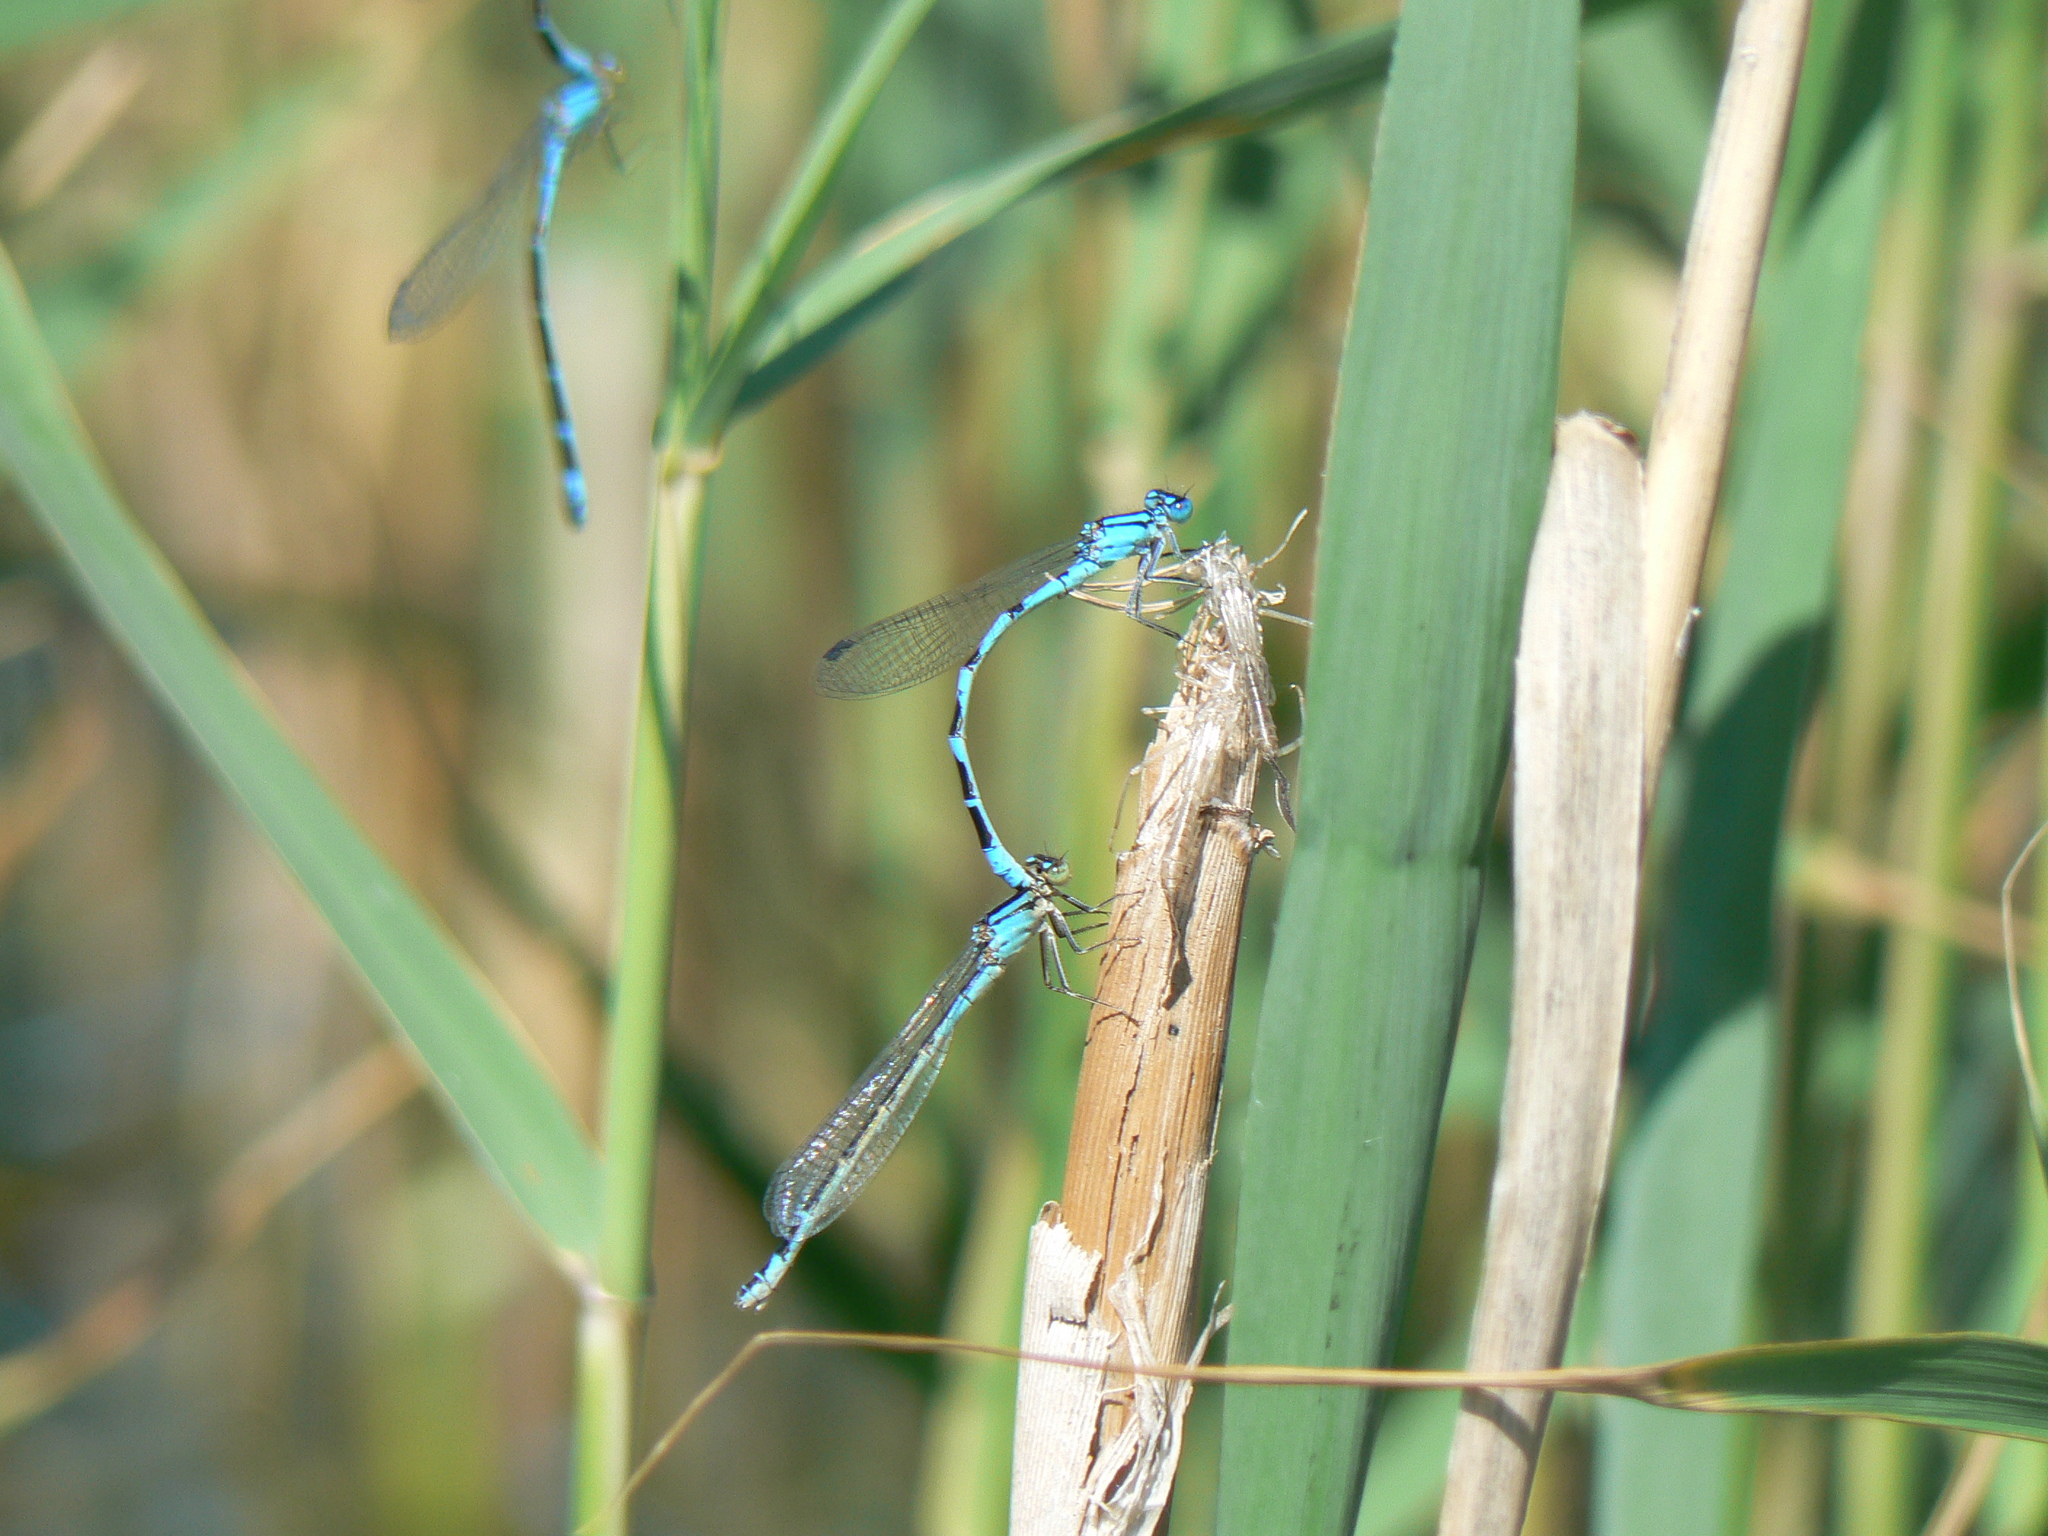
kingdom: Animalia
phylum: Arthropoda
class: Insecta
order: Odonata
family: Coenagrionidae
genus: Enallagma
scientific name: Enallagma cyathigerum
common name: Common blue damselfly
